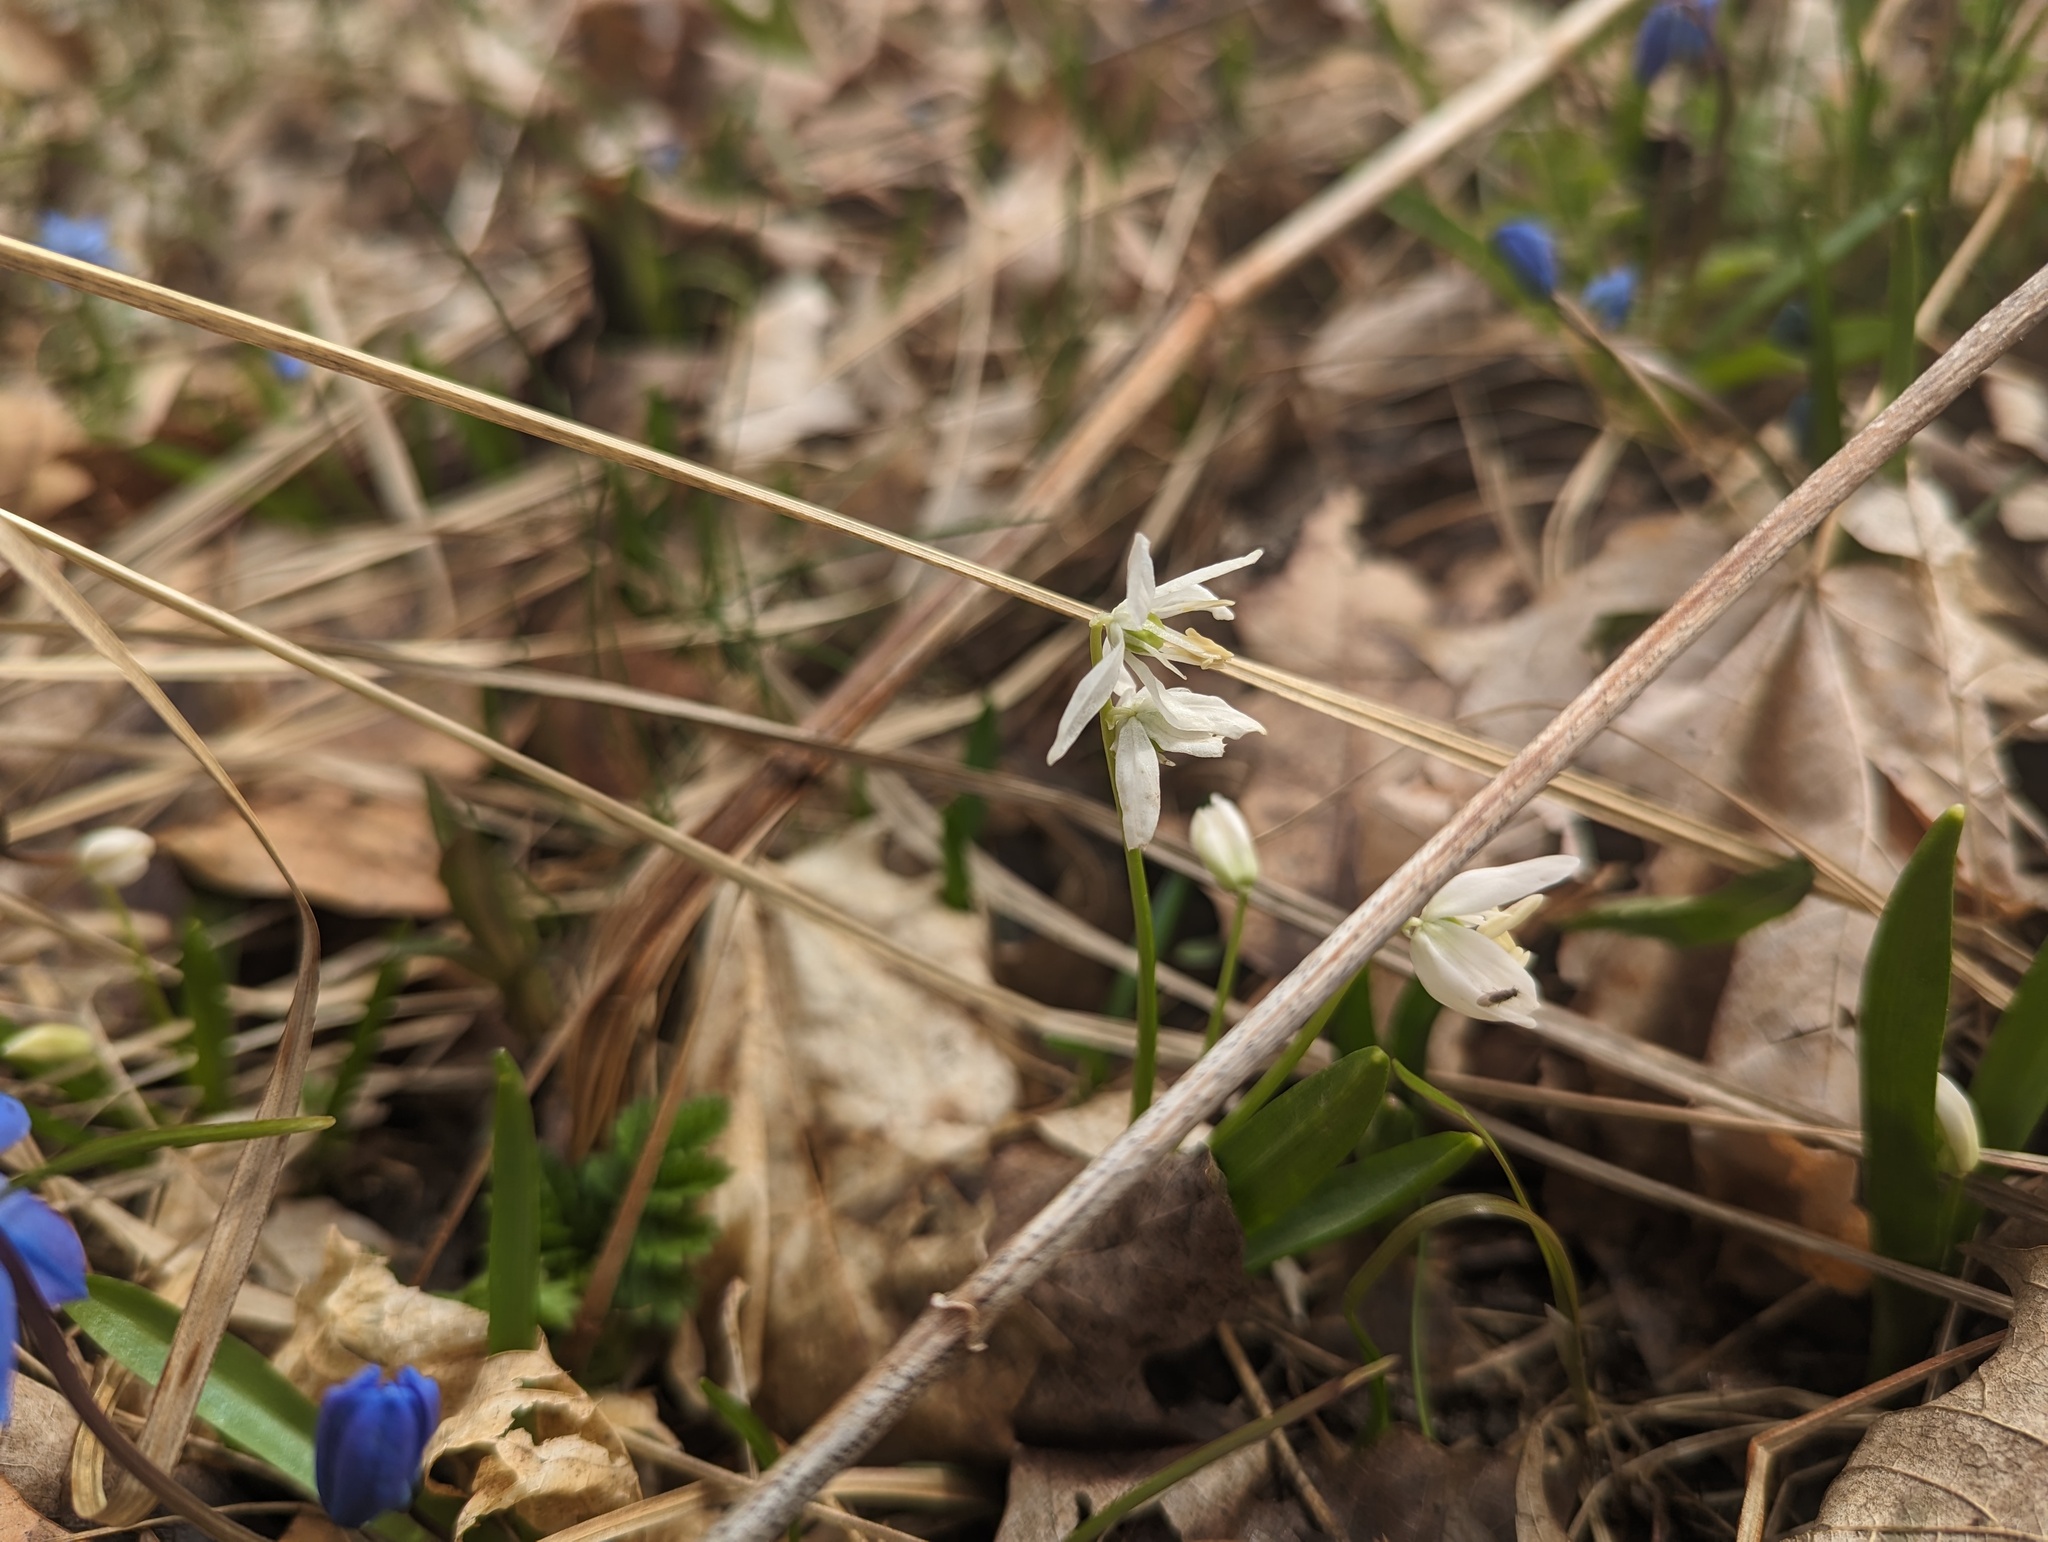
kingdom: Plantae
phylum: Tracheophyta
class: Liliopsida
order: Asparagales
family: Asparagaceae
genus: Scilla
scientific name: Scilla siberica
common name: Siberian squill
